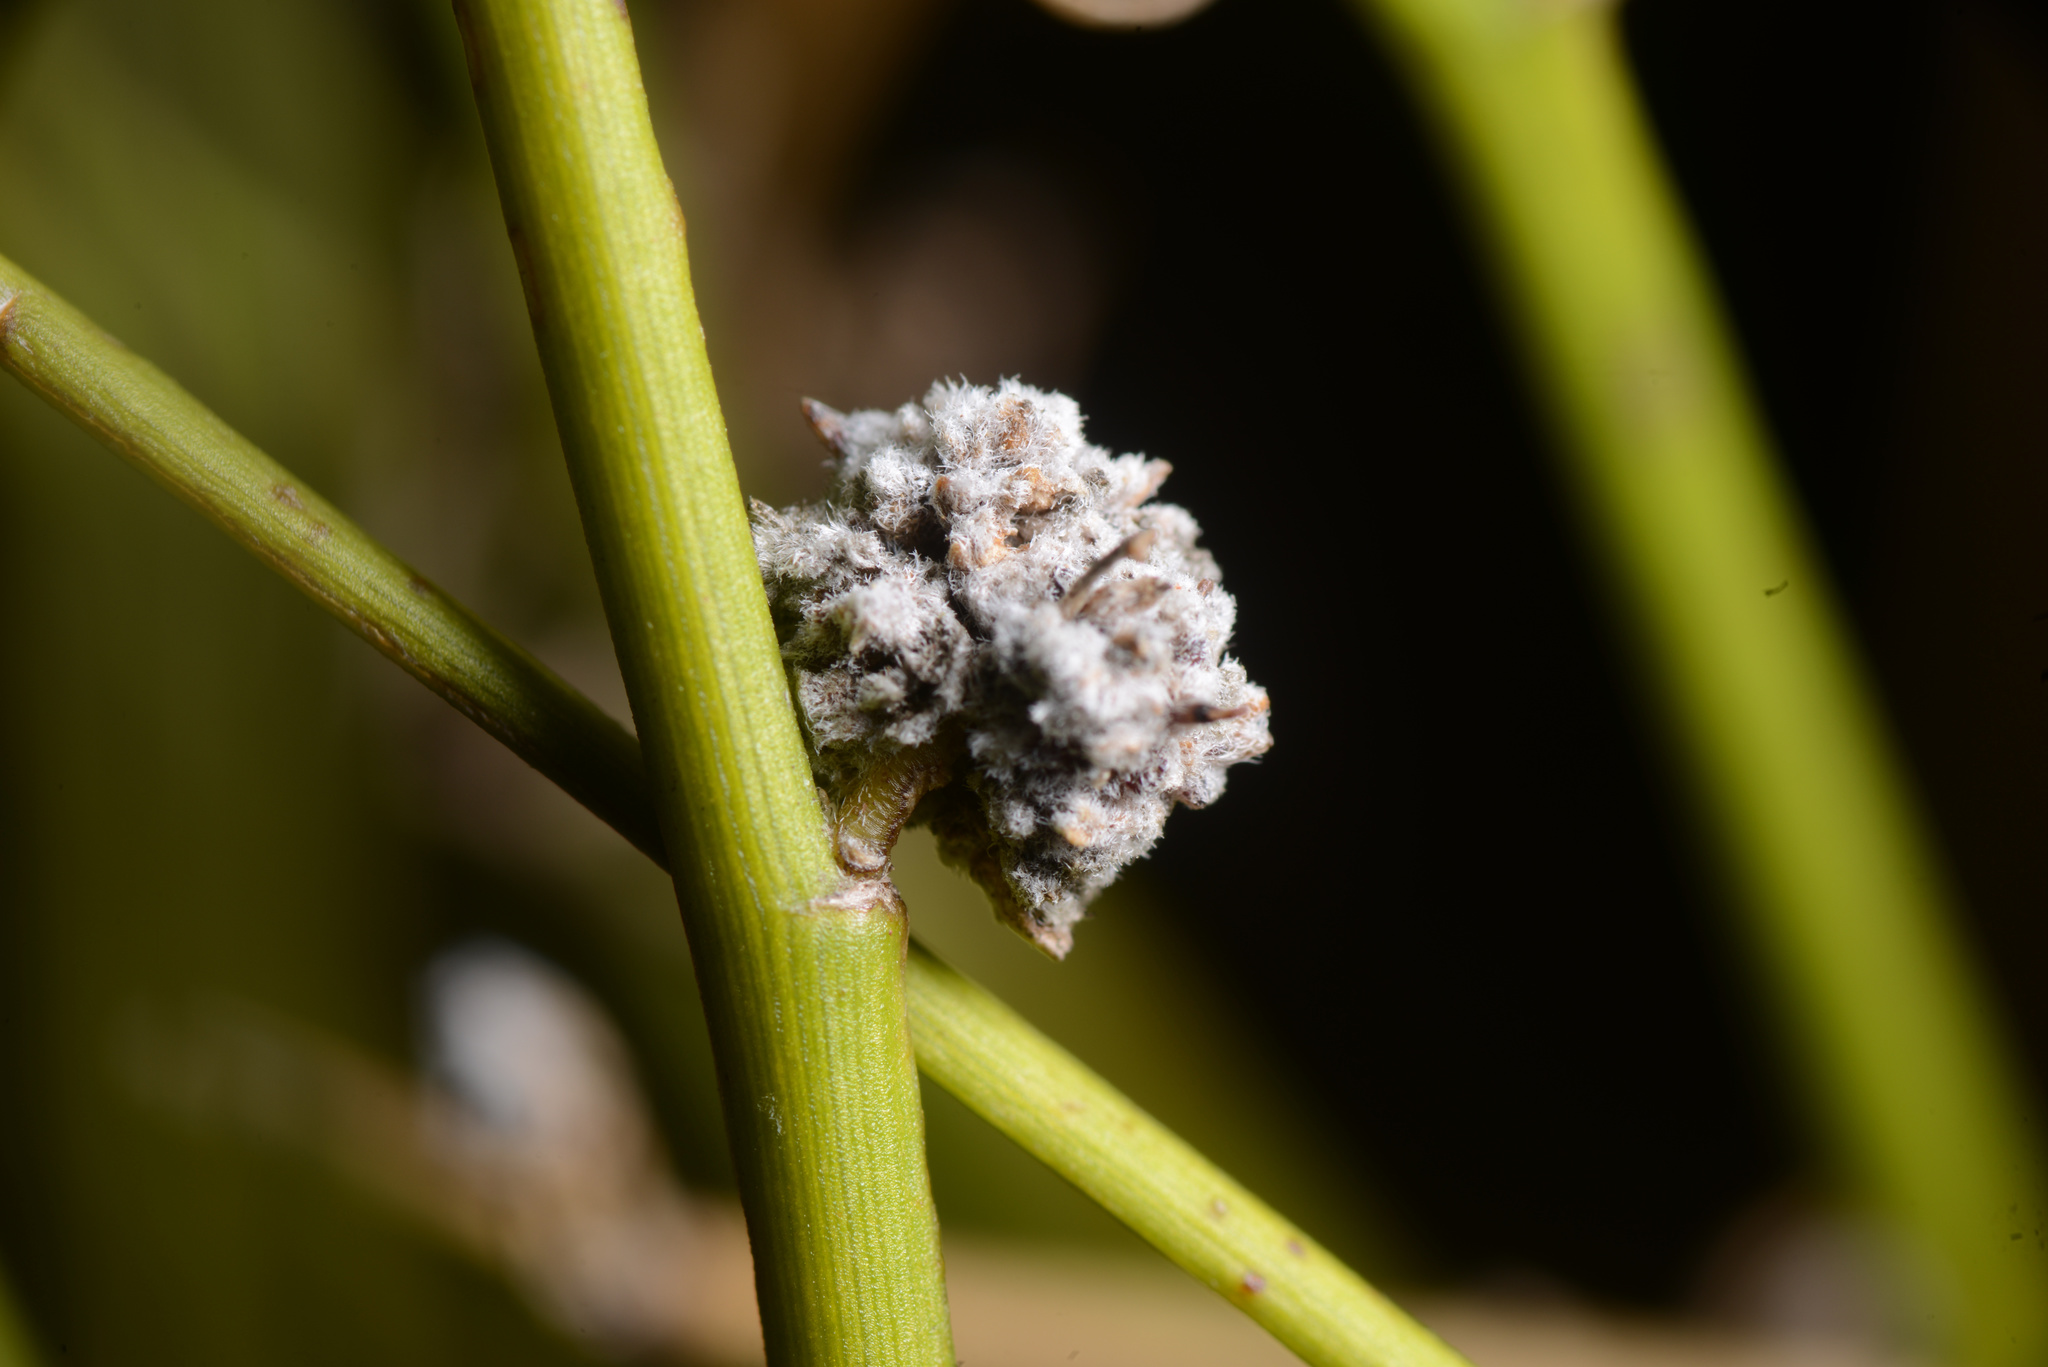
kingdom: Animalia
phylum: Arthropoda
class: Arachnida
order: Trombidiformes
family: Eriophyidae
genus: Aceria
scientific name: Aceria carmichaeliae
